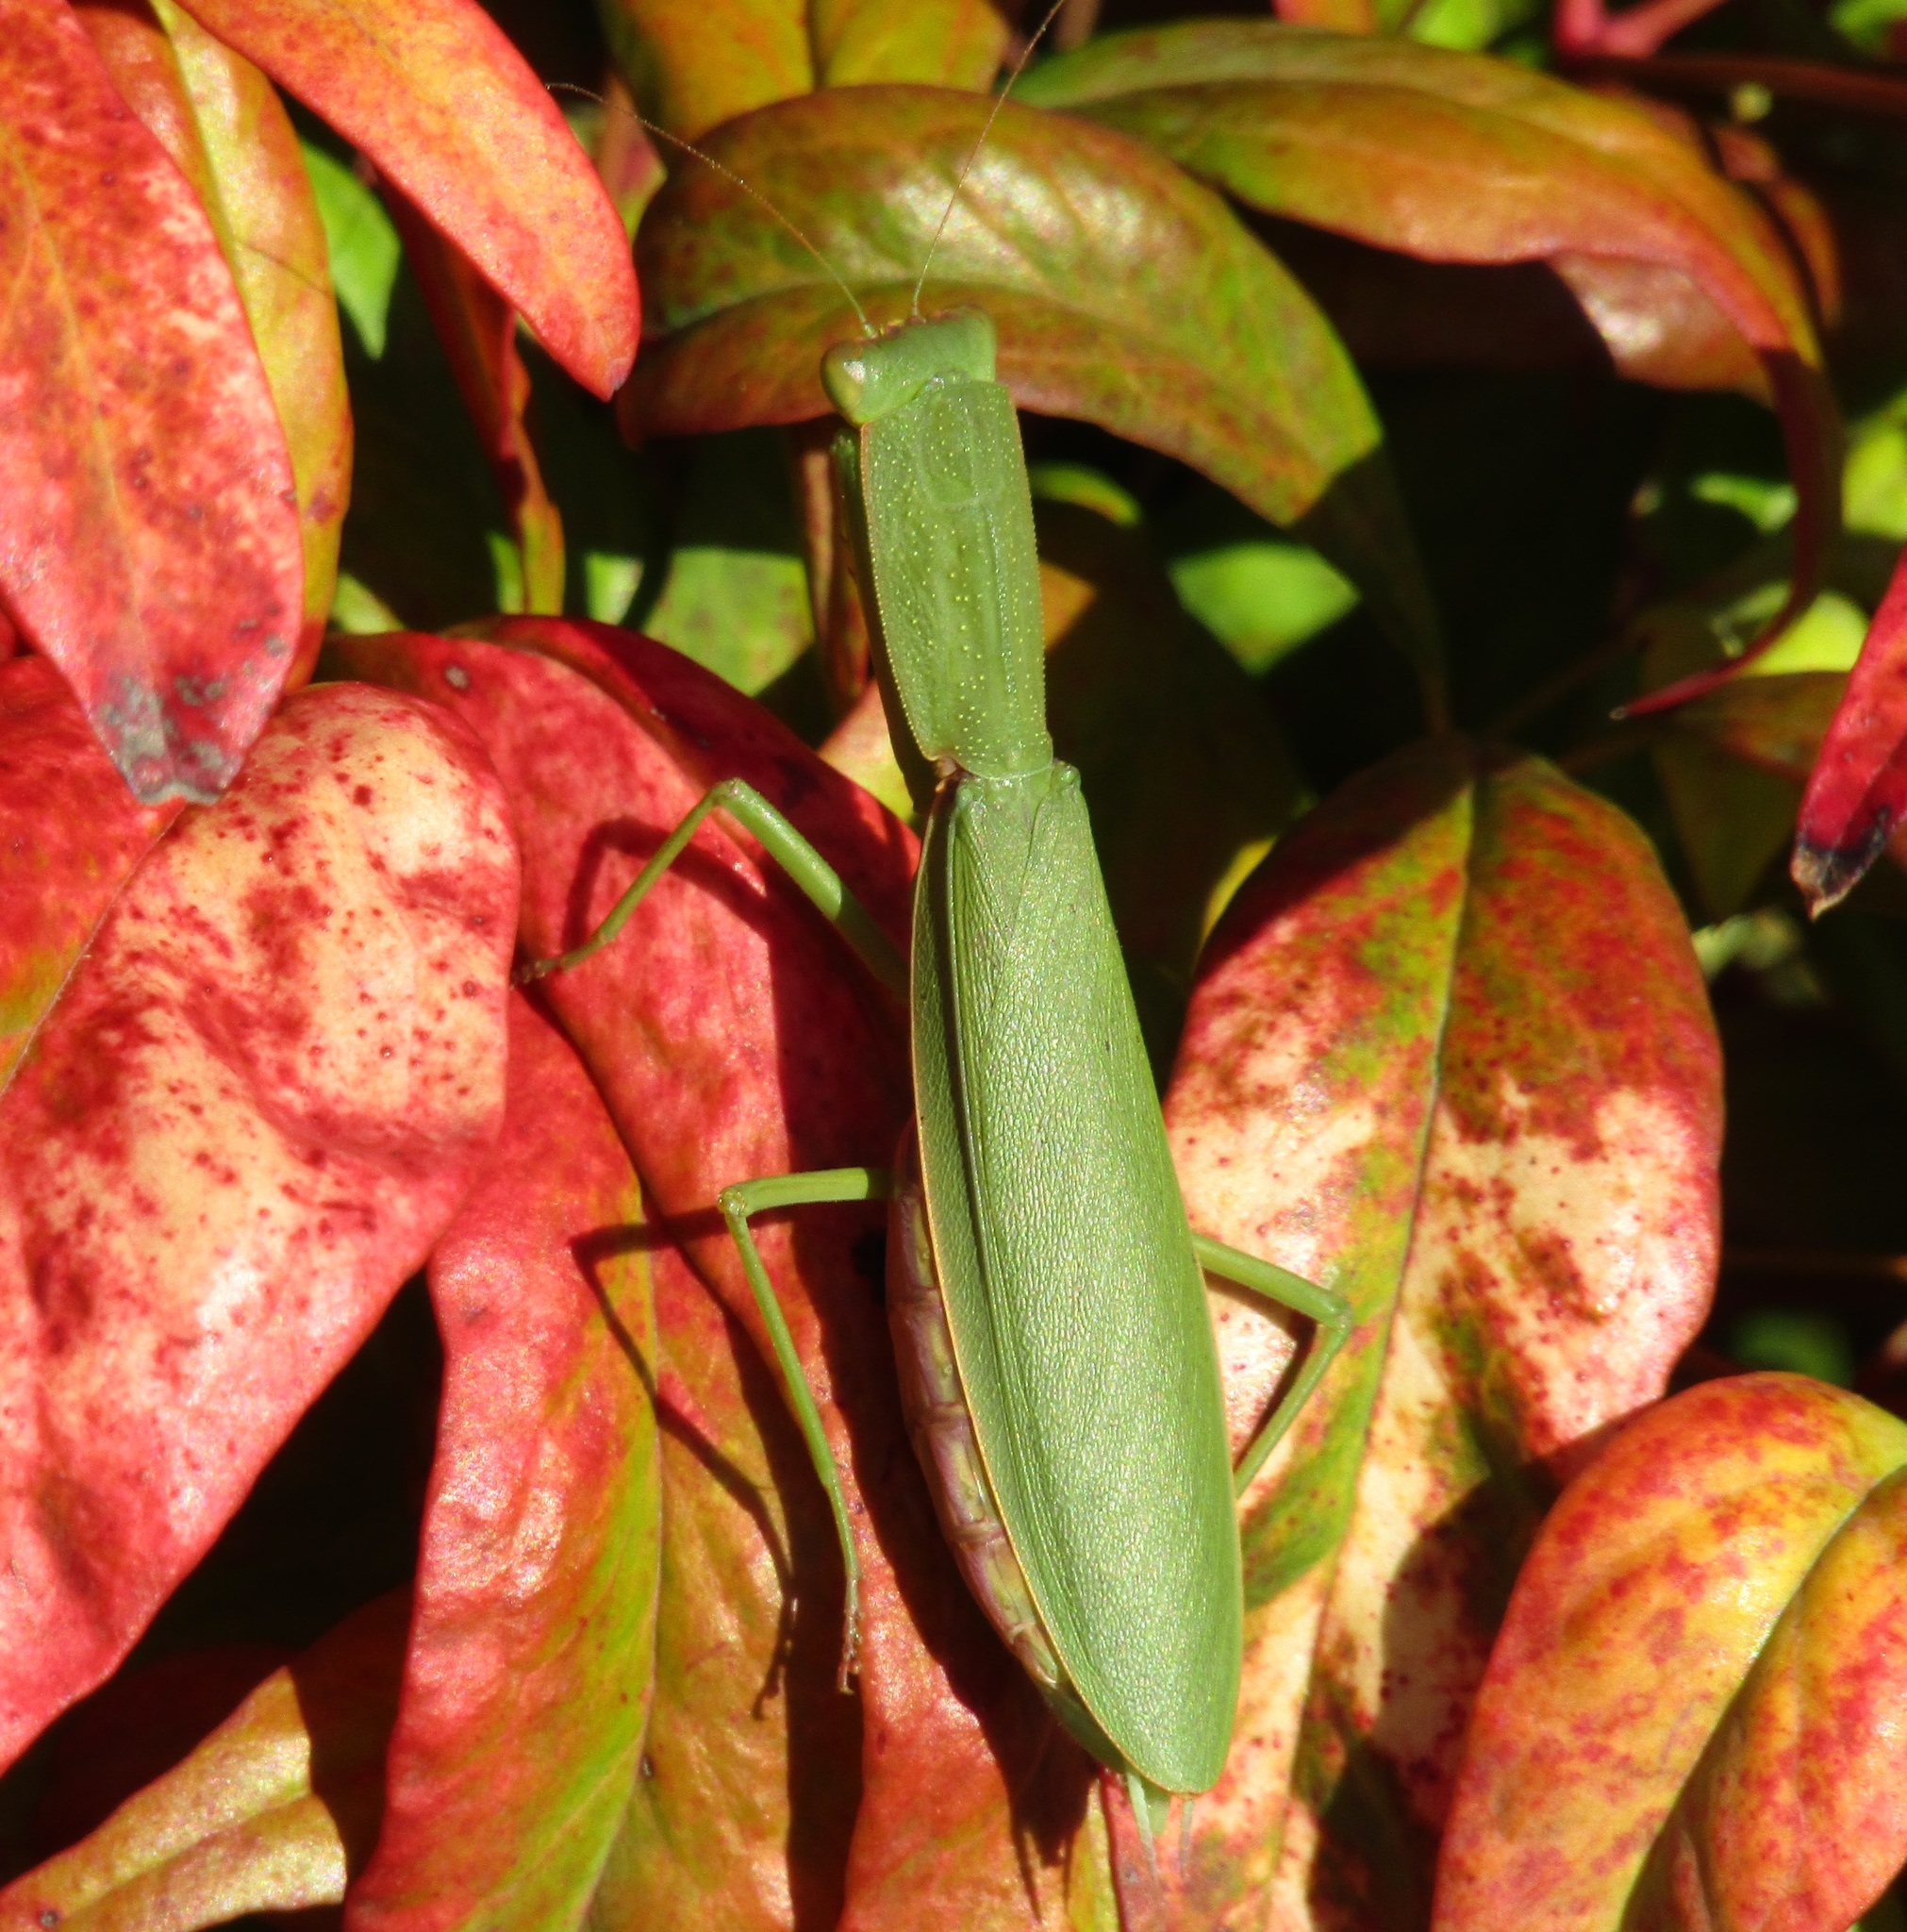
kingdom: Animalia
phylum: Arthropoda
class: Insecta
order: Mantodea
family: Mantidae
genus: Orthodera
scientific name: Orthodera novaezealandiae
